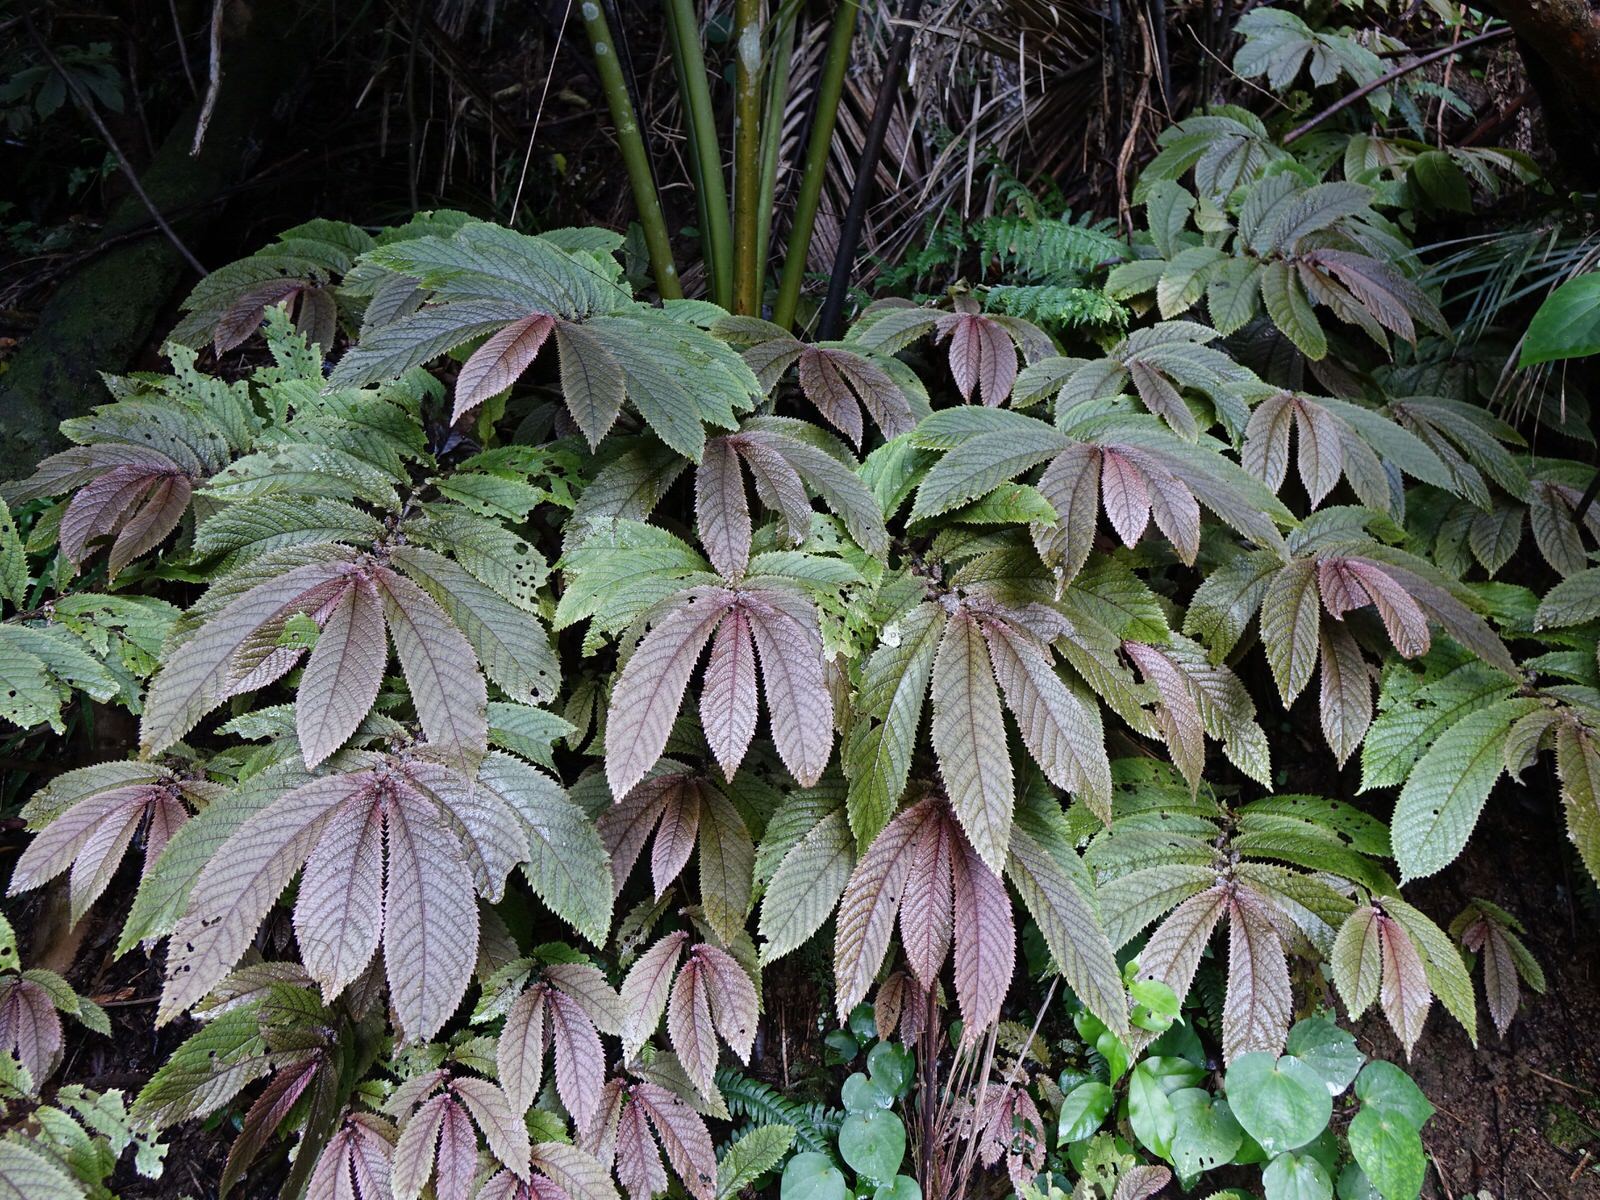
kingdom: Plantae
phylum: Tracheophyta
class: Magnoliopsida
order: Rosales
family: Urticaceae
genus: Elatostema
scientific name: Elatostema rugosum
